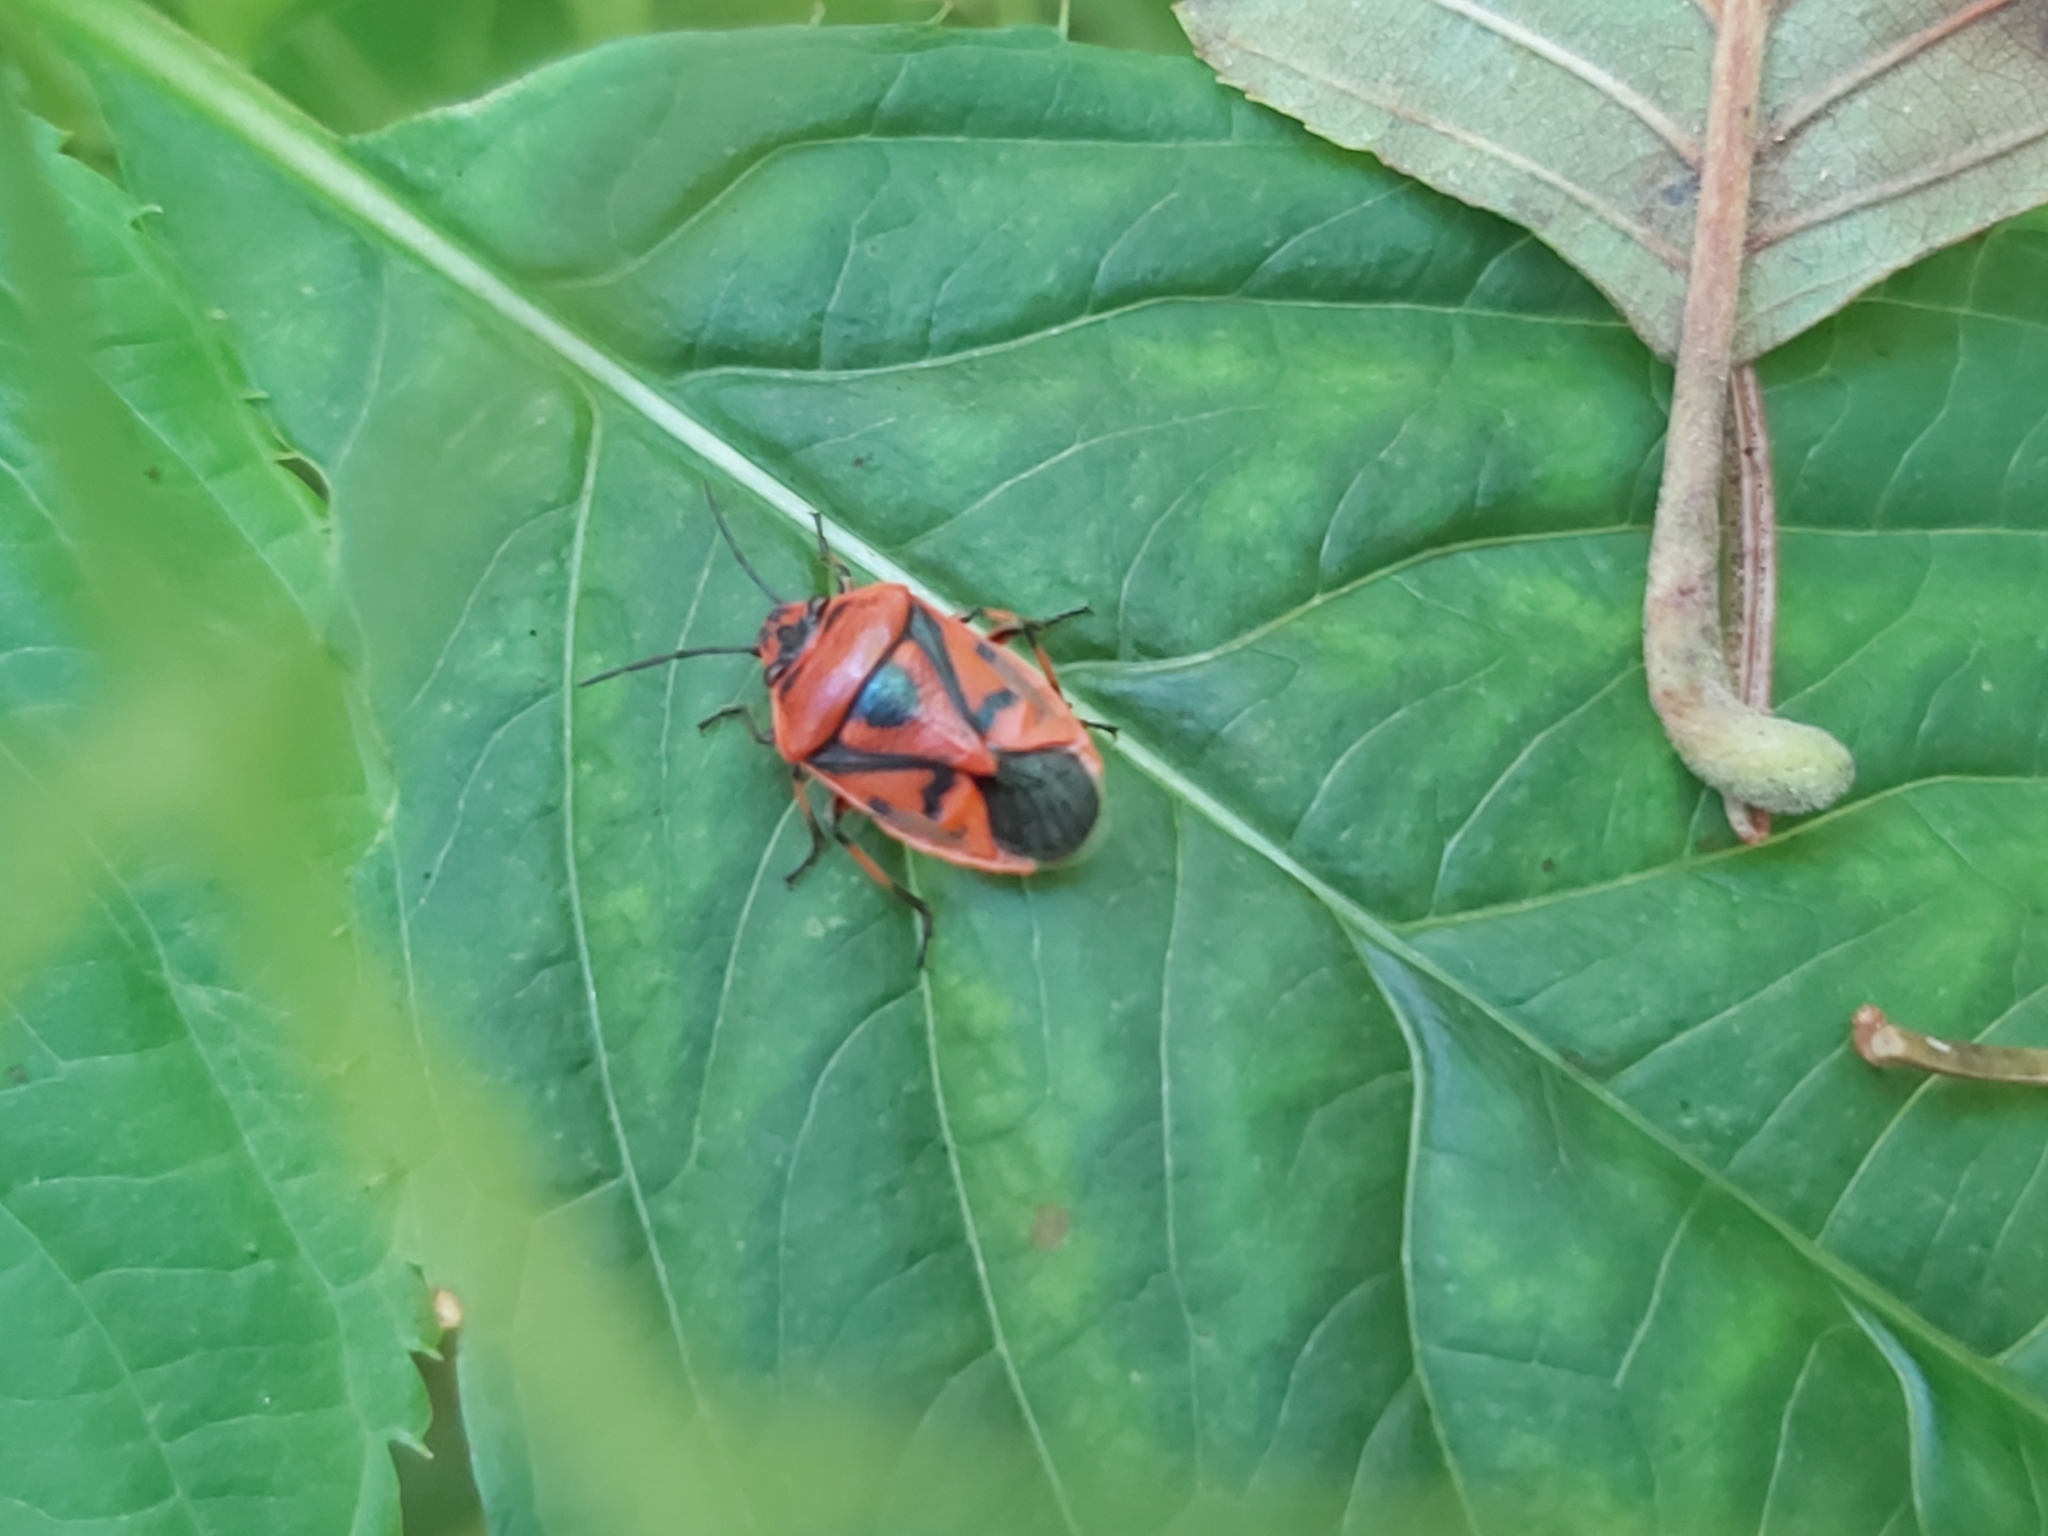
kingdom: Animalia
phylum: Arthropoda
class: Insecta
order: Hemiptera
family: Pentatomidae
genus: Eurydema
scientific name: Eurydema ornata
